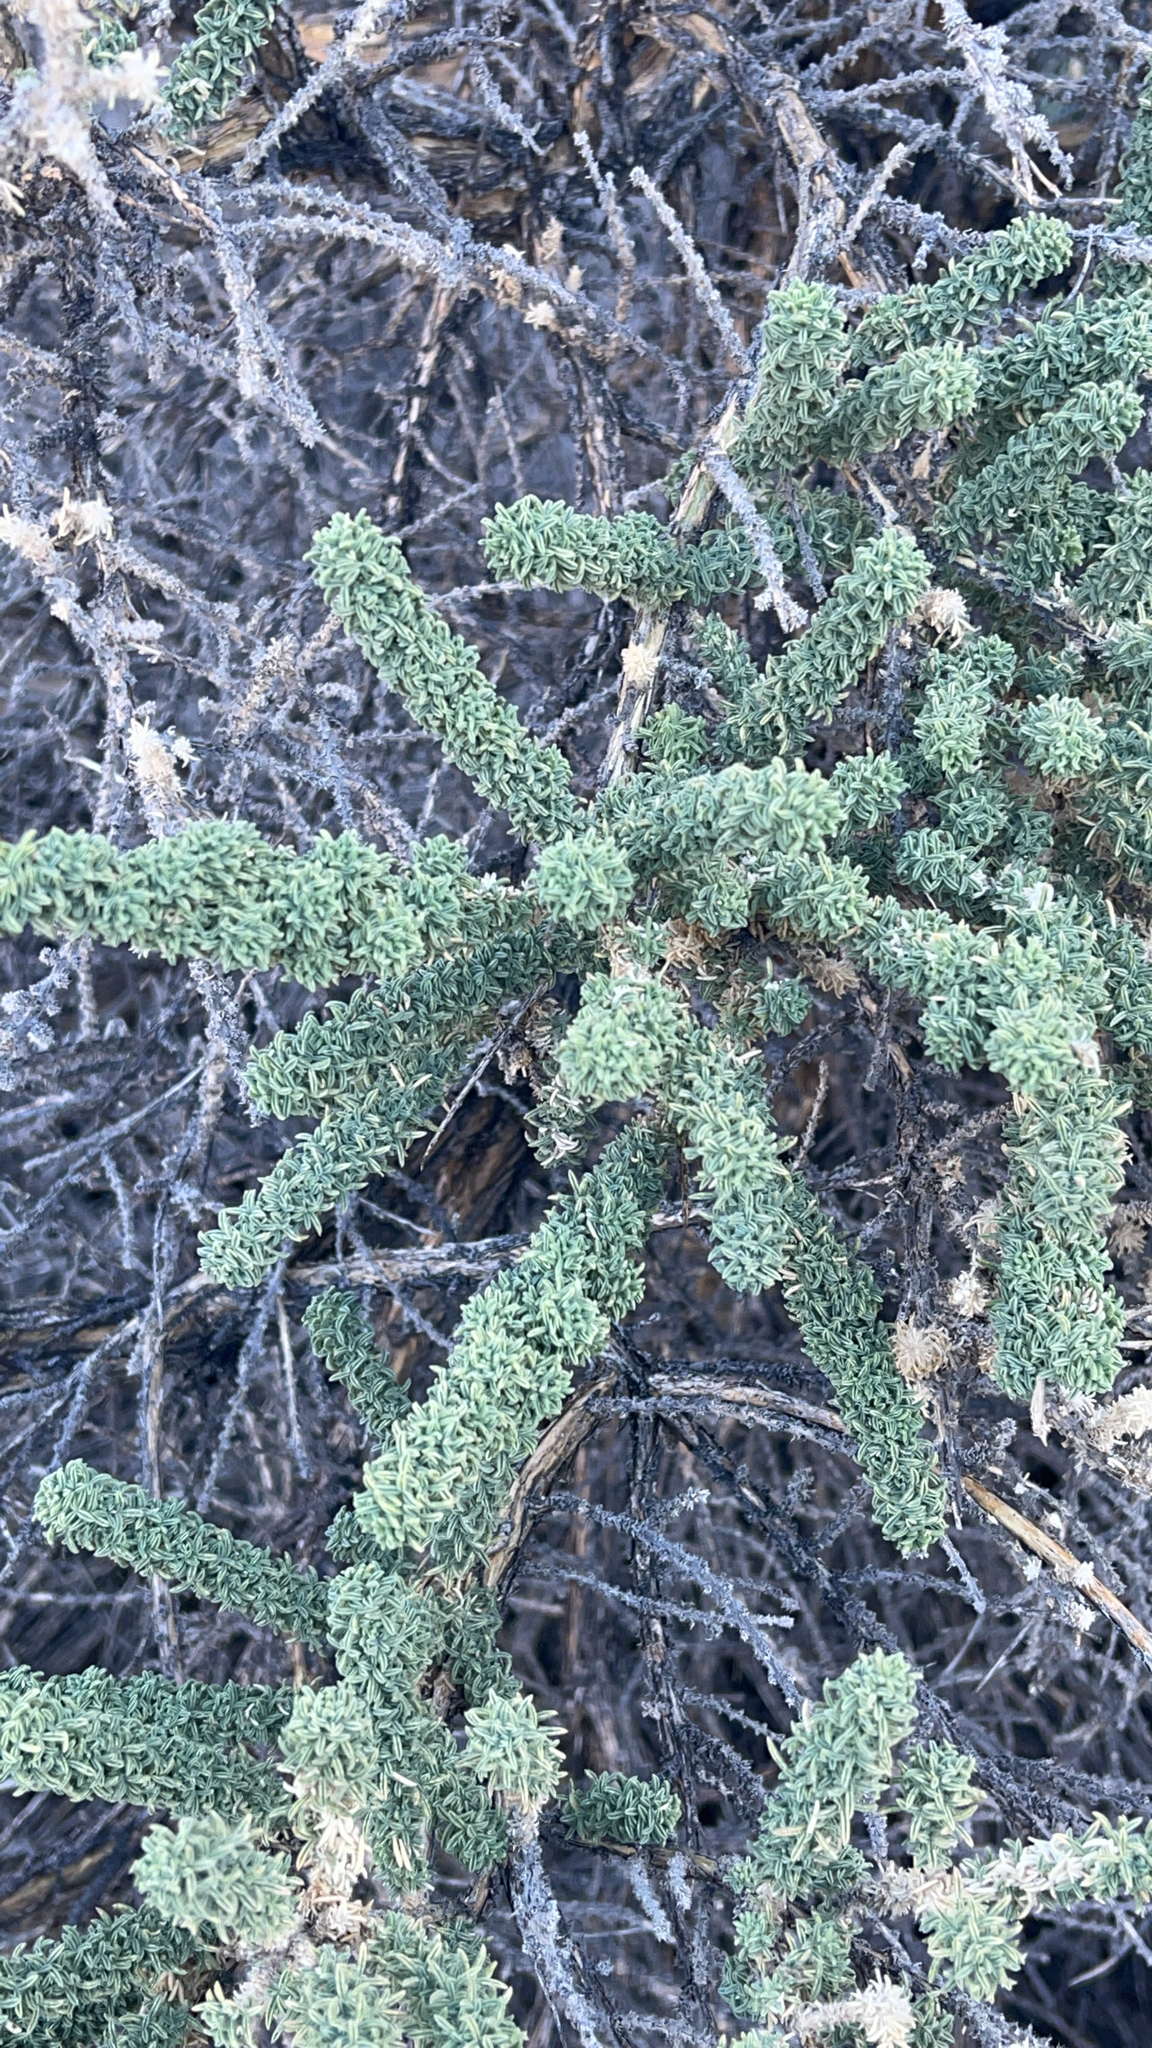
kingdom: Plantae
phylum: Tracheophyta
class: Magnoliopsida
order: Fabales
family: Fabaceae
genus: Adenocarpus
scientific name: Adenocarpus viscosus
